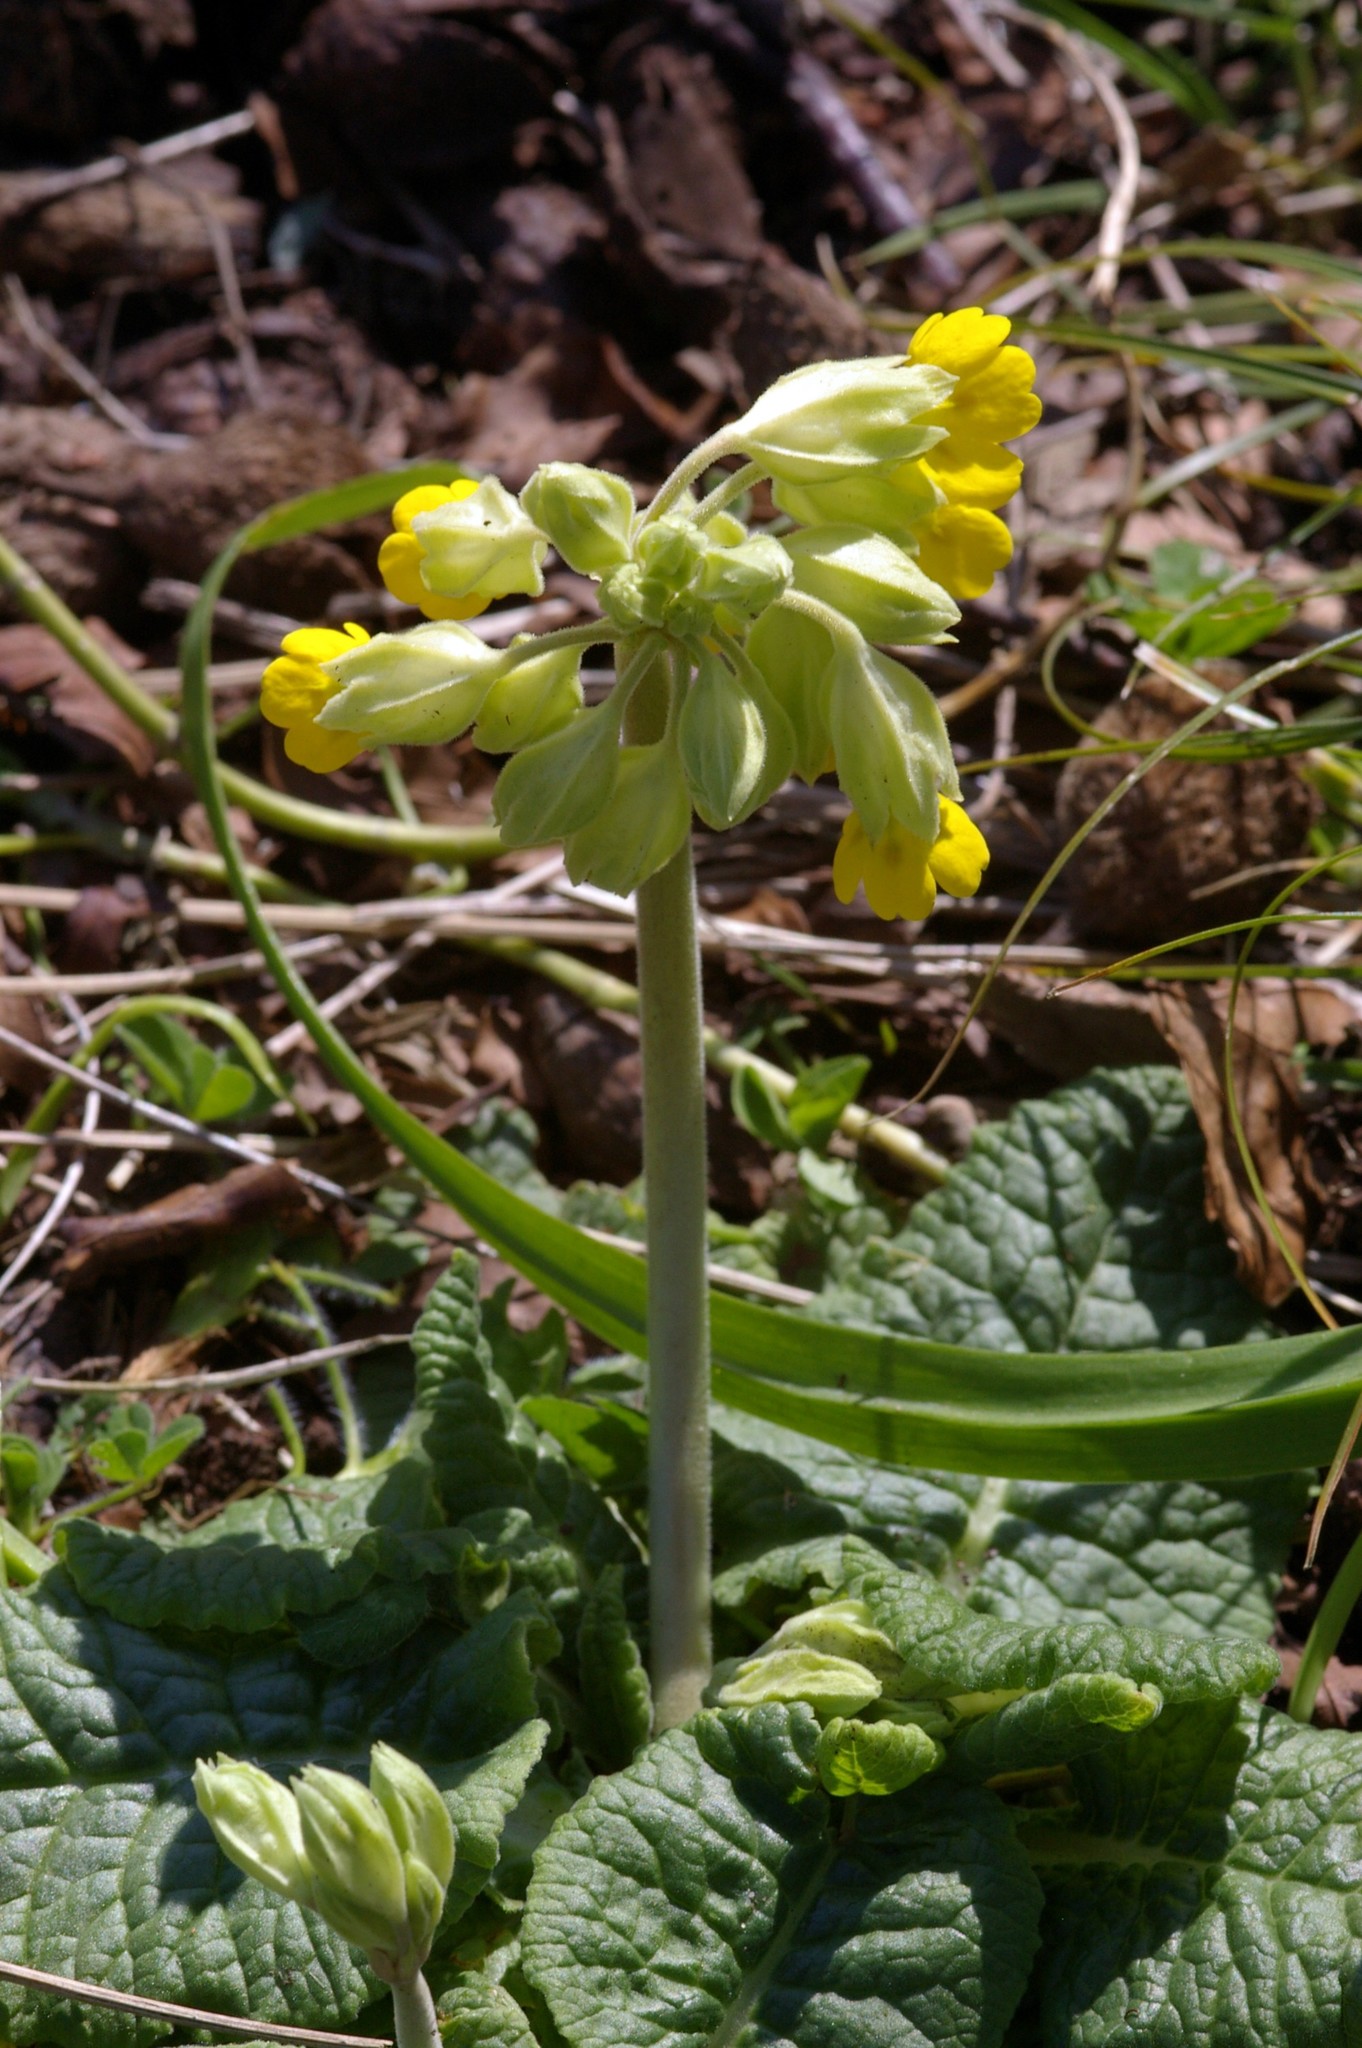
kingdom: Plantae
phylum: Tracheophyta
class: Magnoliopsida
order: Ericales
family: Primulaceae
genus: Primula
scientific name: Primula veris
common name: Cowslip
